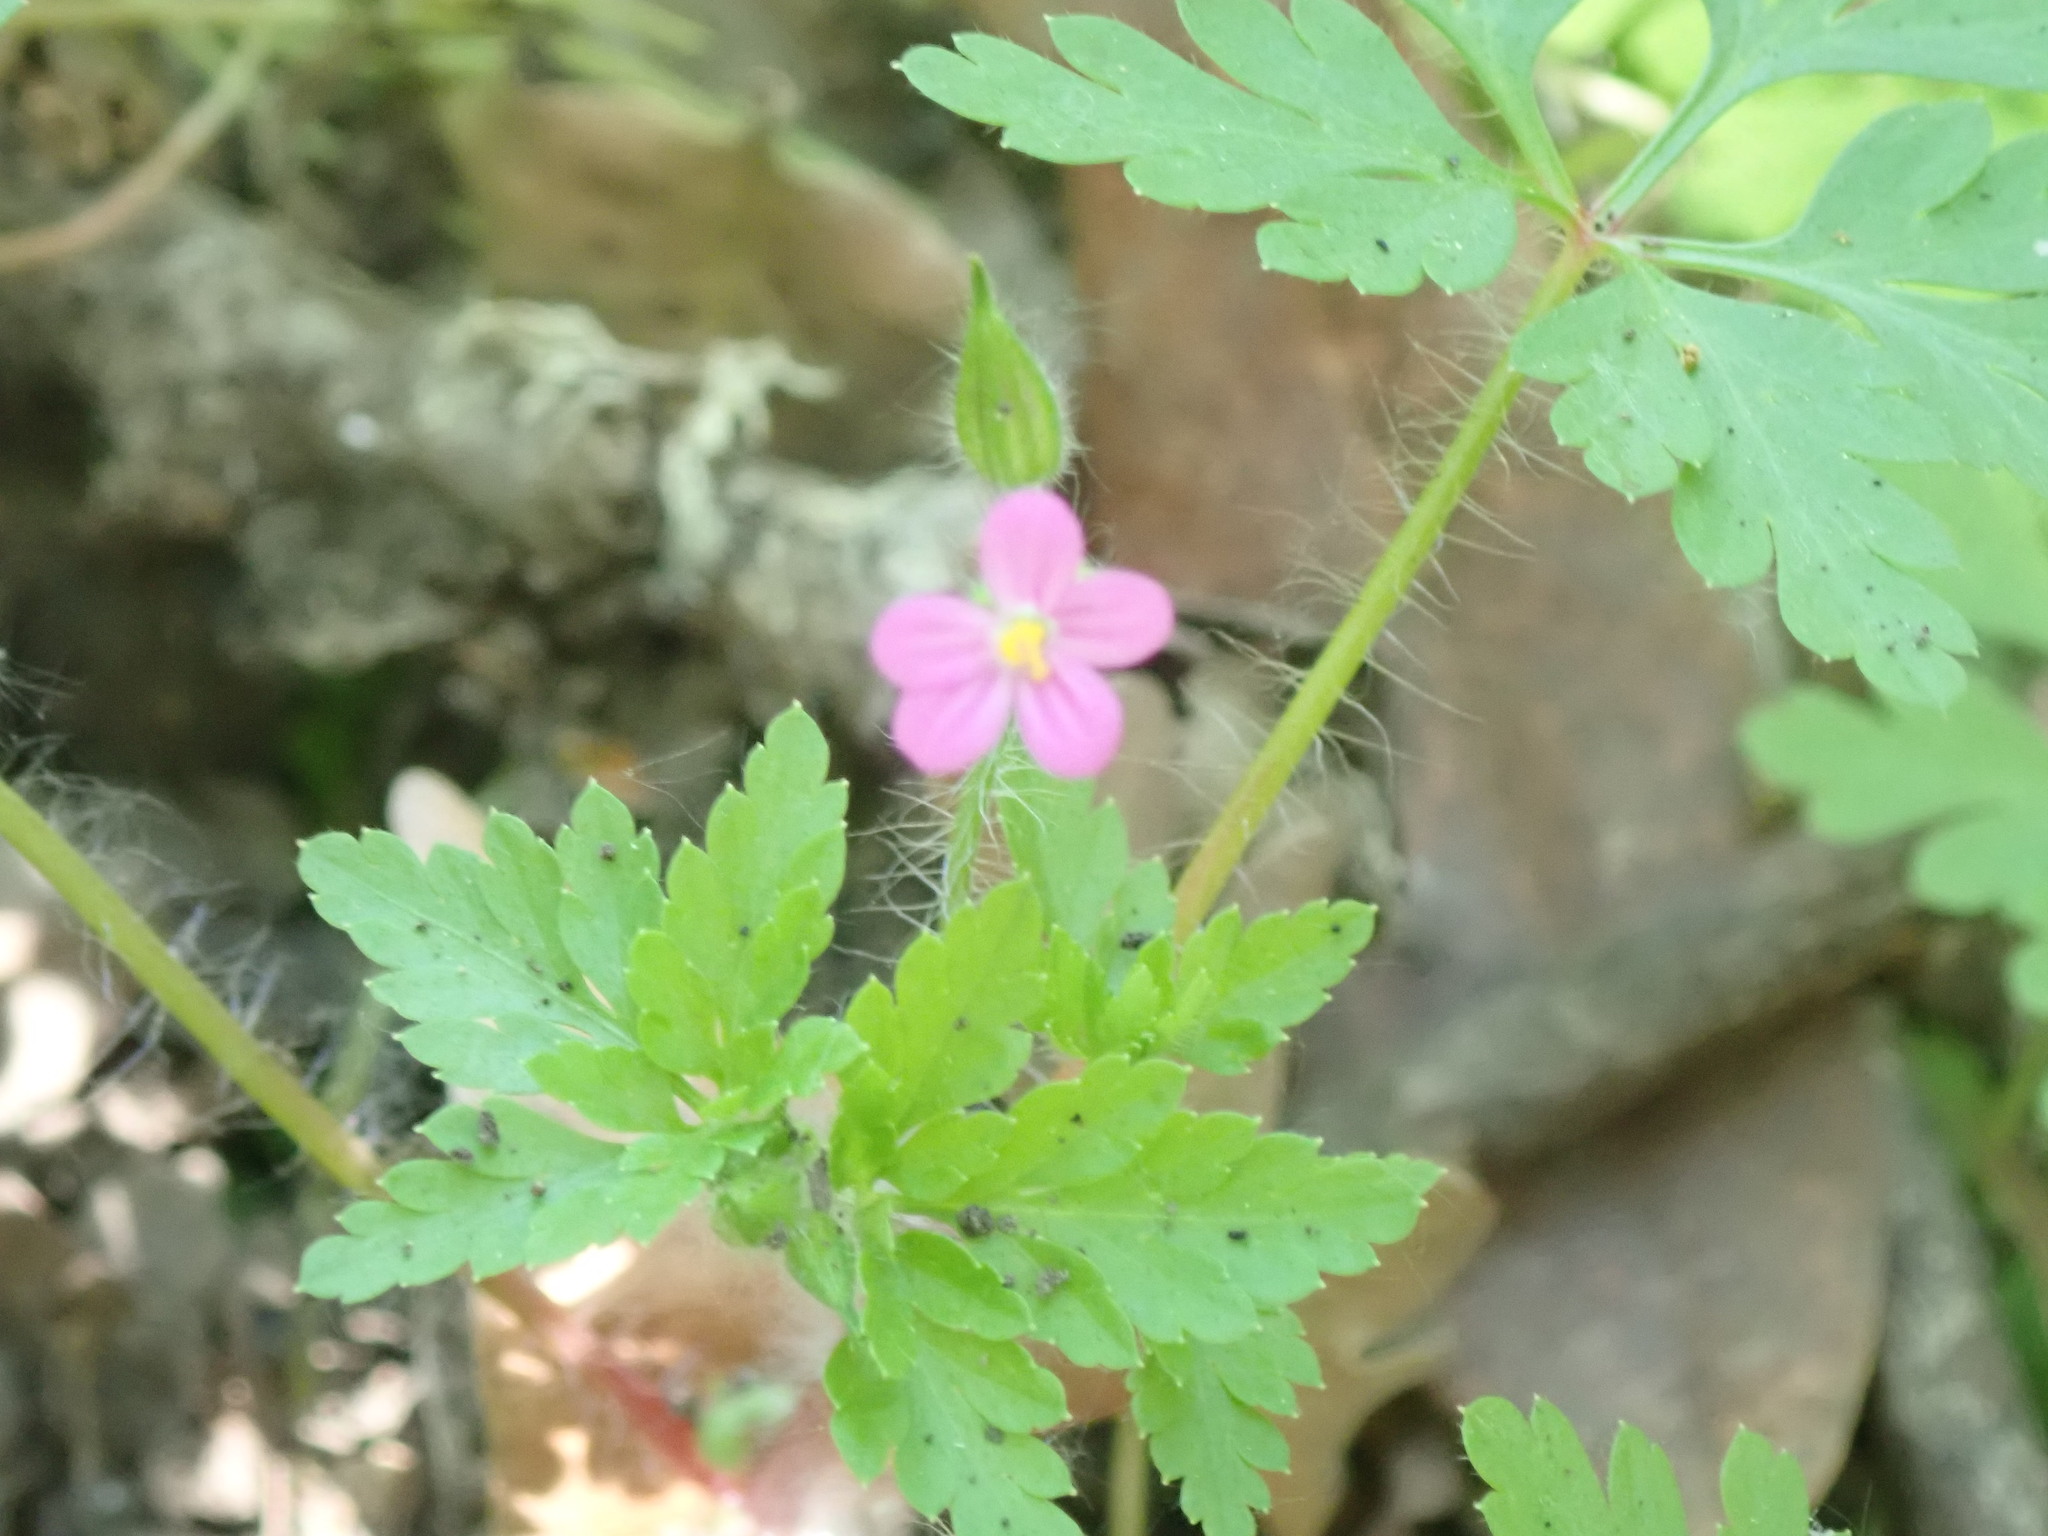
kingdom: Plantae
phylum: Tracheophyta
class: Magnoliopsida
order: Geraniales
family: Geraniaceae
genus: Geranium
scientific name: Geranium purpureum
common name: Little-robin
